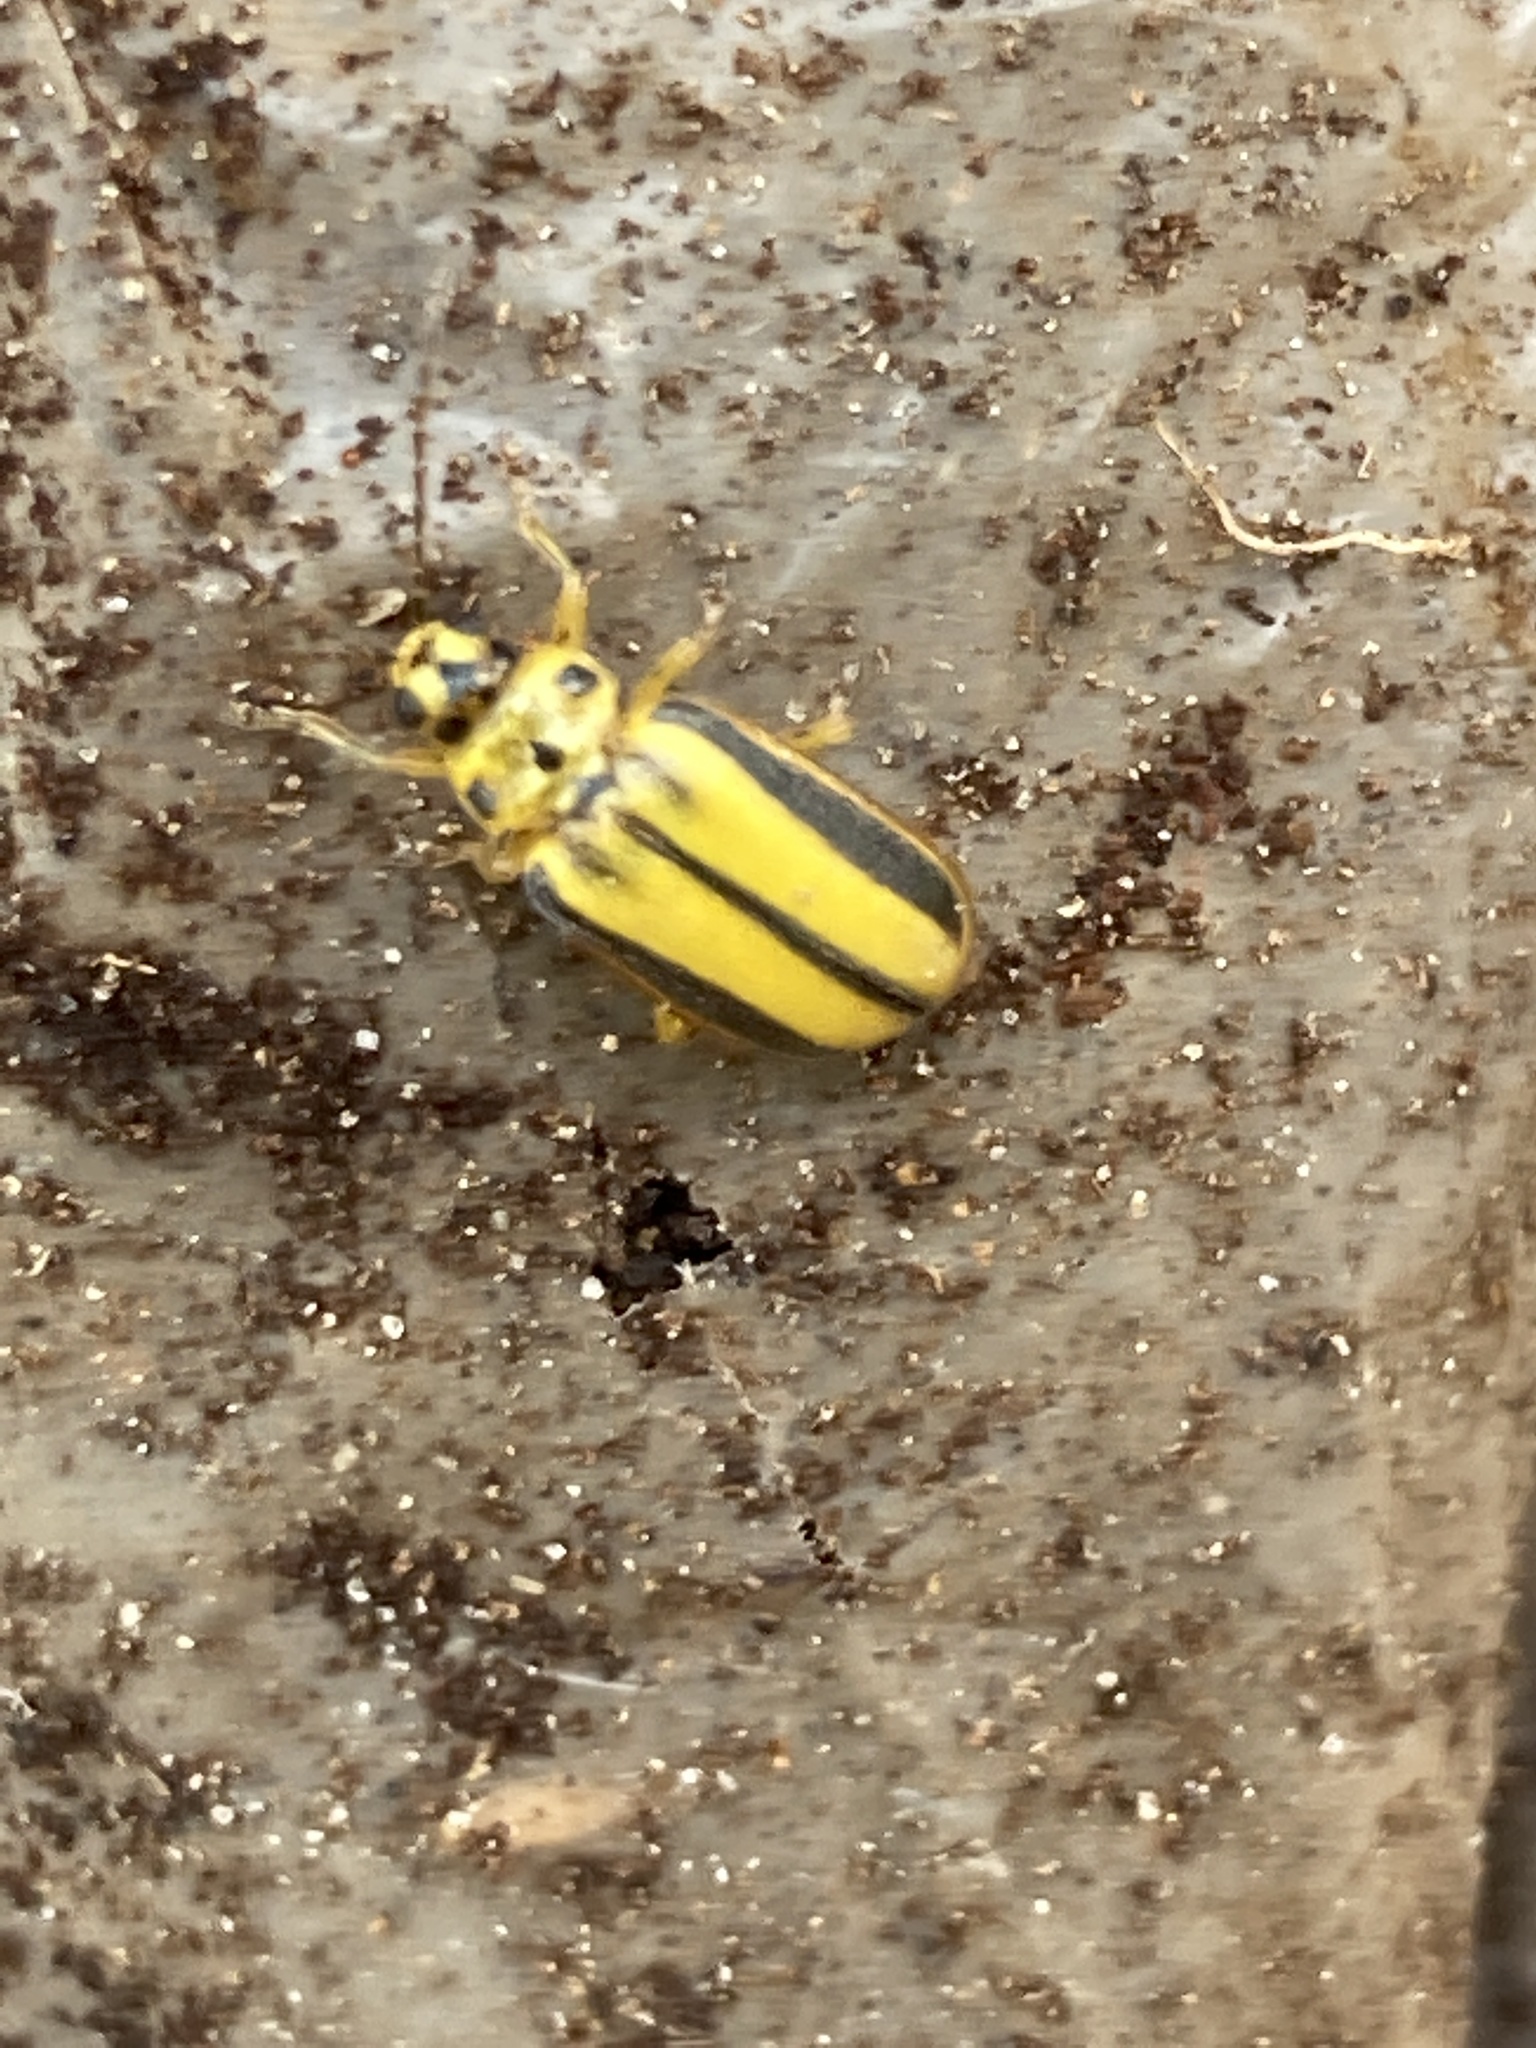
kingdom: Animalia
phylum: Arthropoda
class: Insecta
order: Coleoptera
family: Chrysomelidae
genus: Xanthogaleruca
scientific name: Xanthogaleruca luteola
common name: Elm leaf beetle
